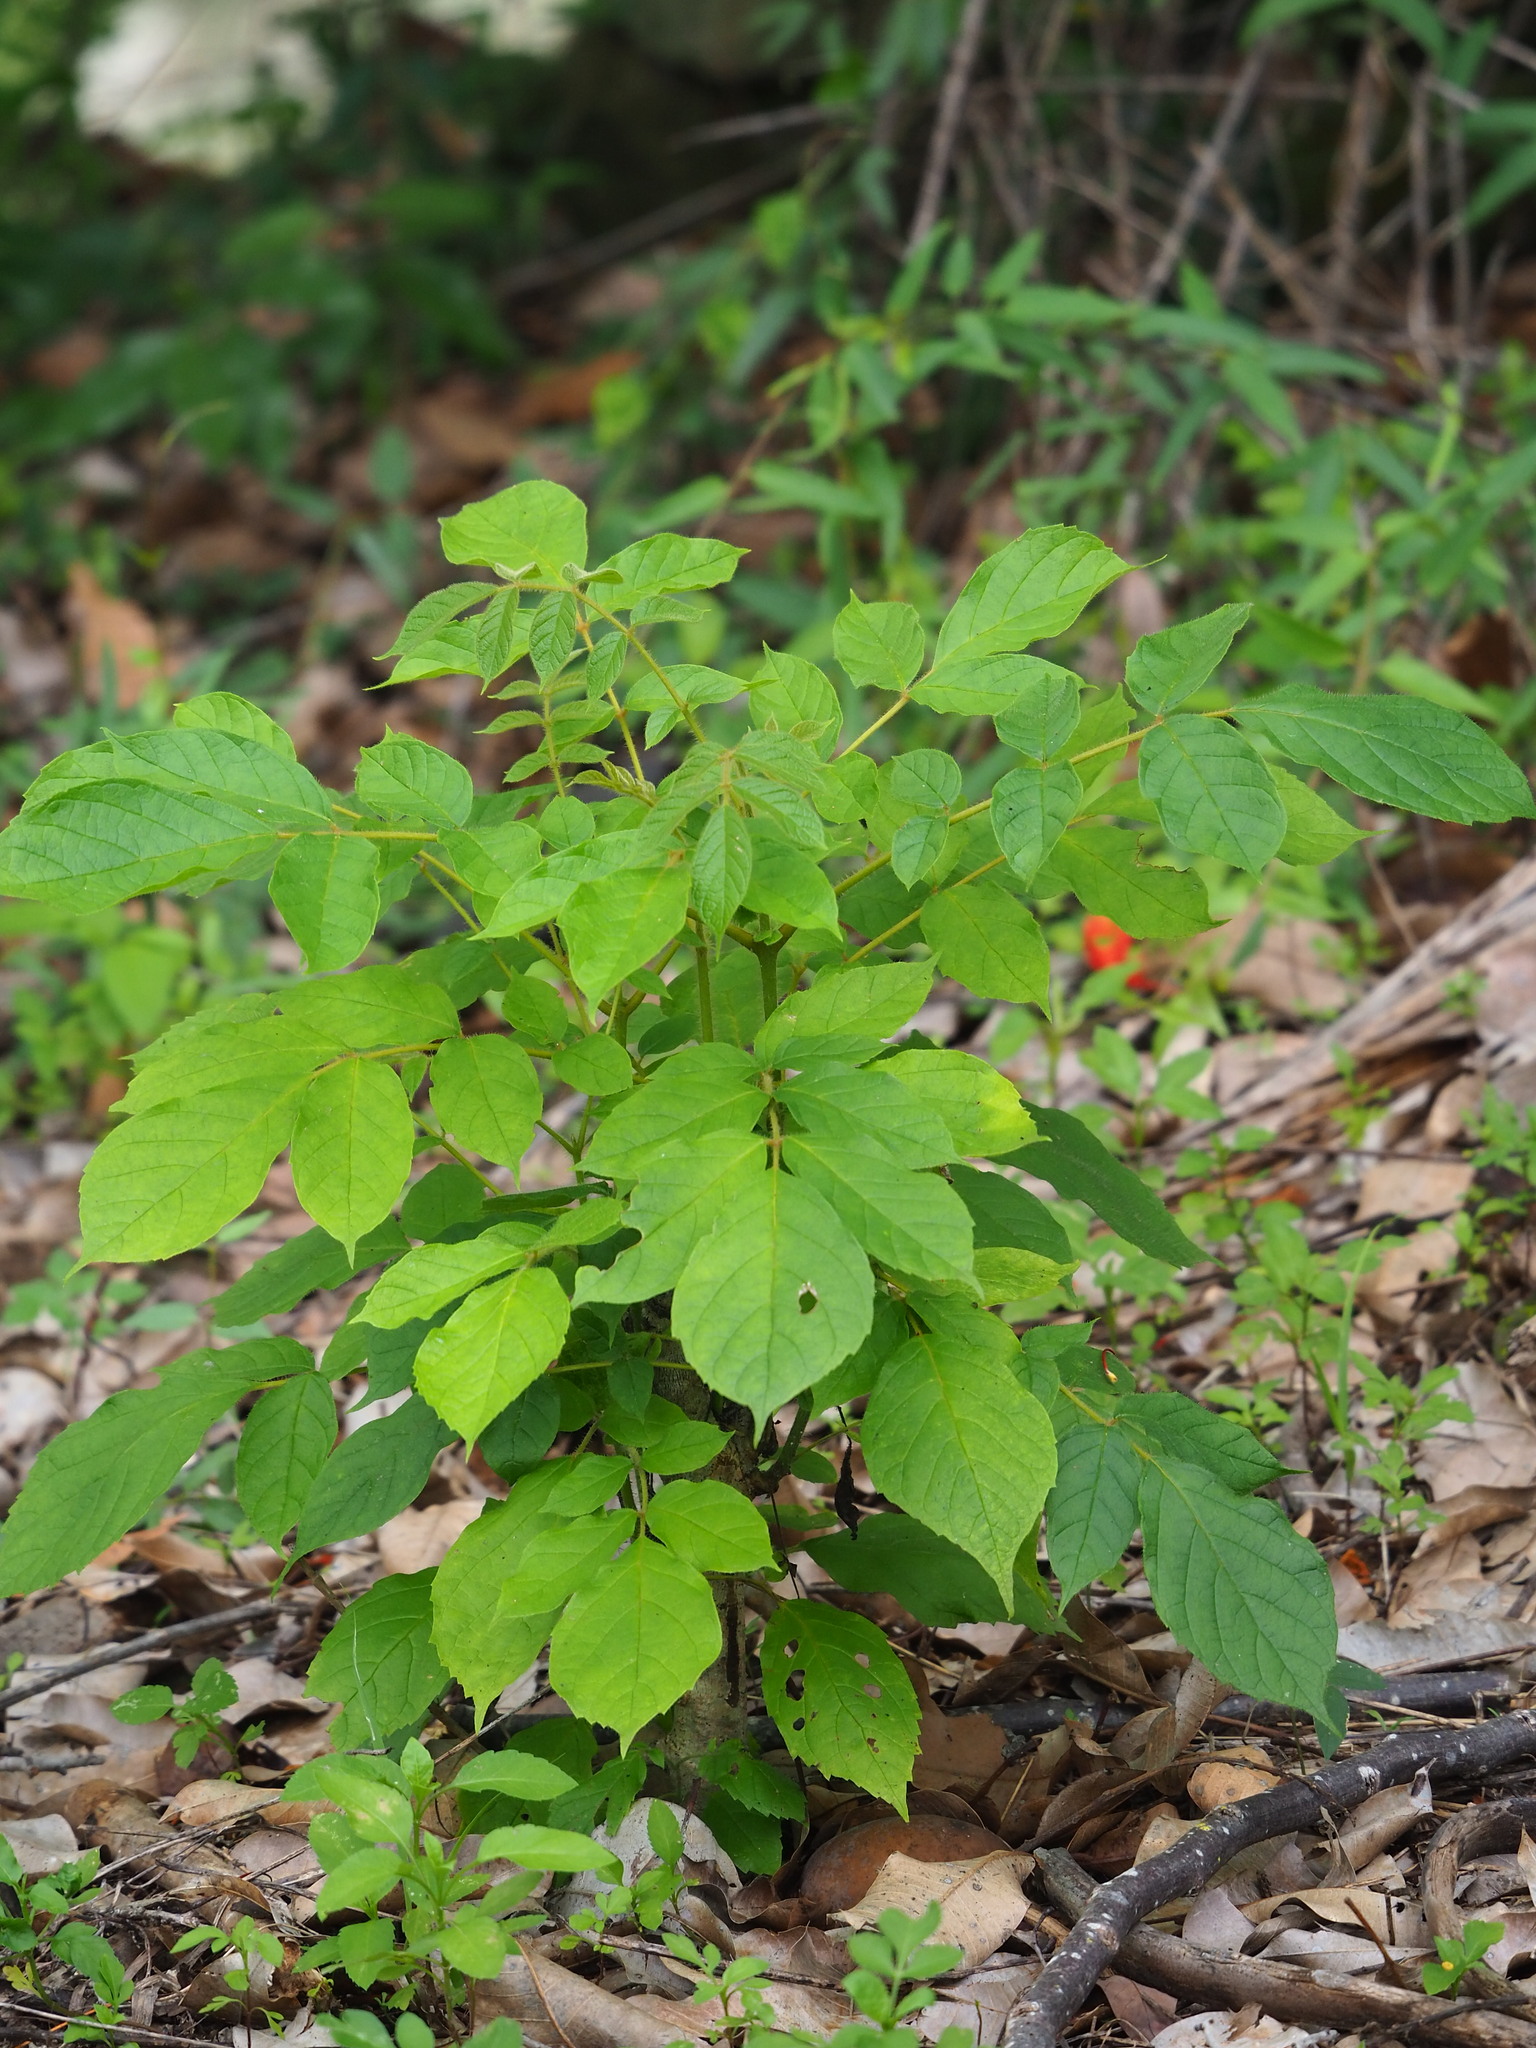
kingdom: Plantae
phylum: Tracheophyta
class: Magnoliopsida
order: Lamiales
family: Bignoniaceae
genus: Spathodea
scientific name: Spathodea campanulata
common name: African tuliptree
